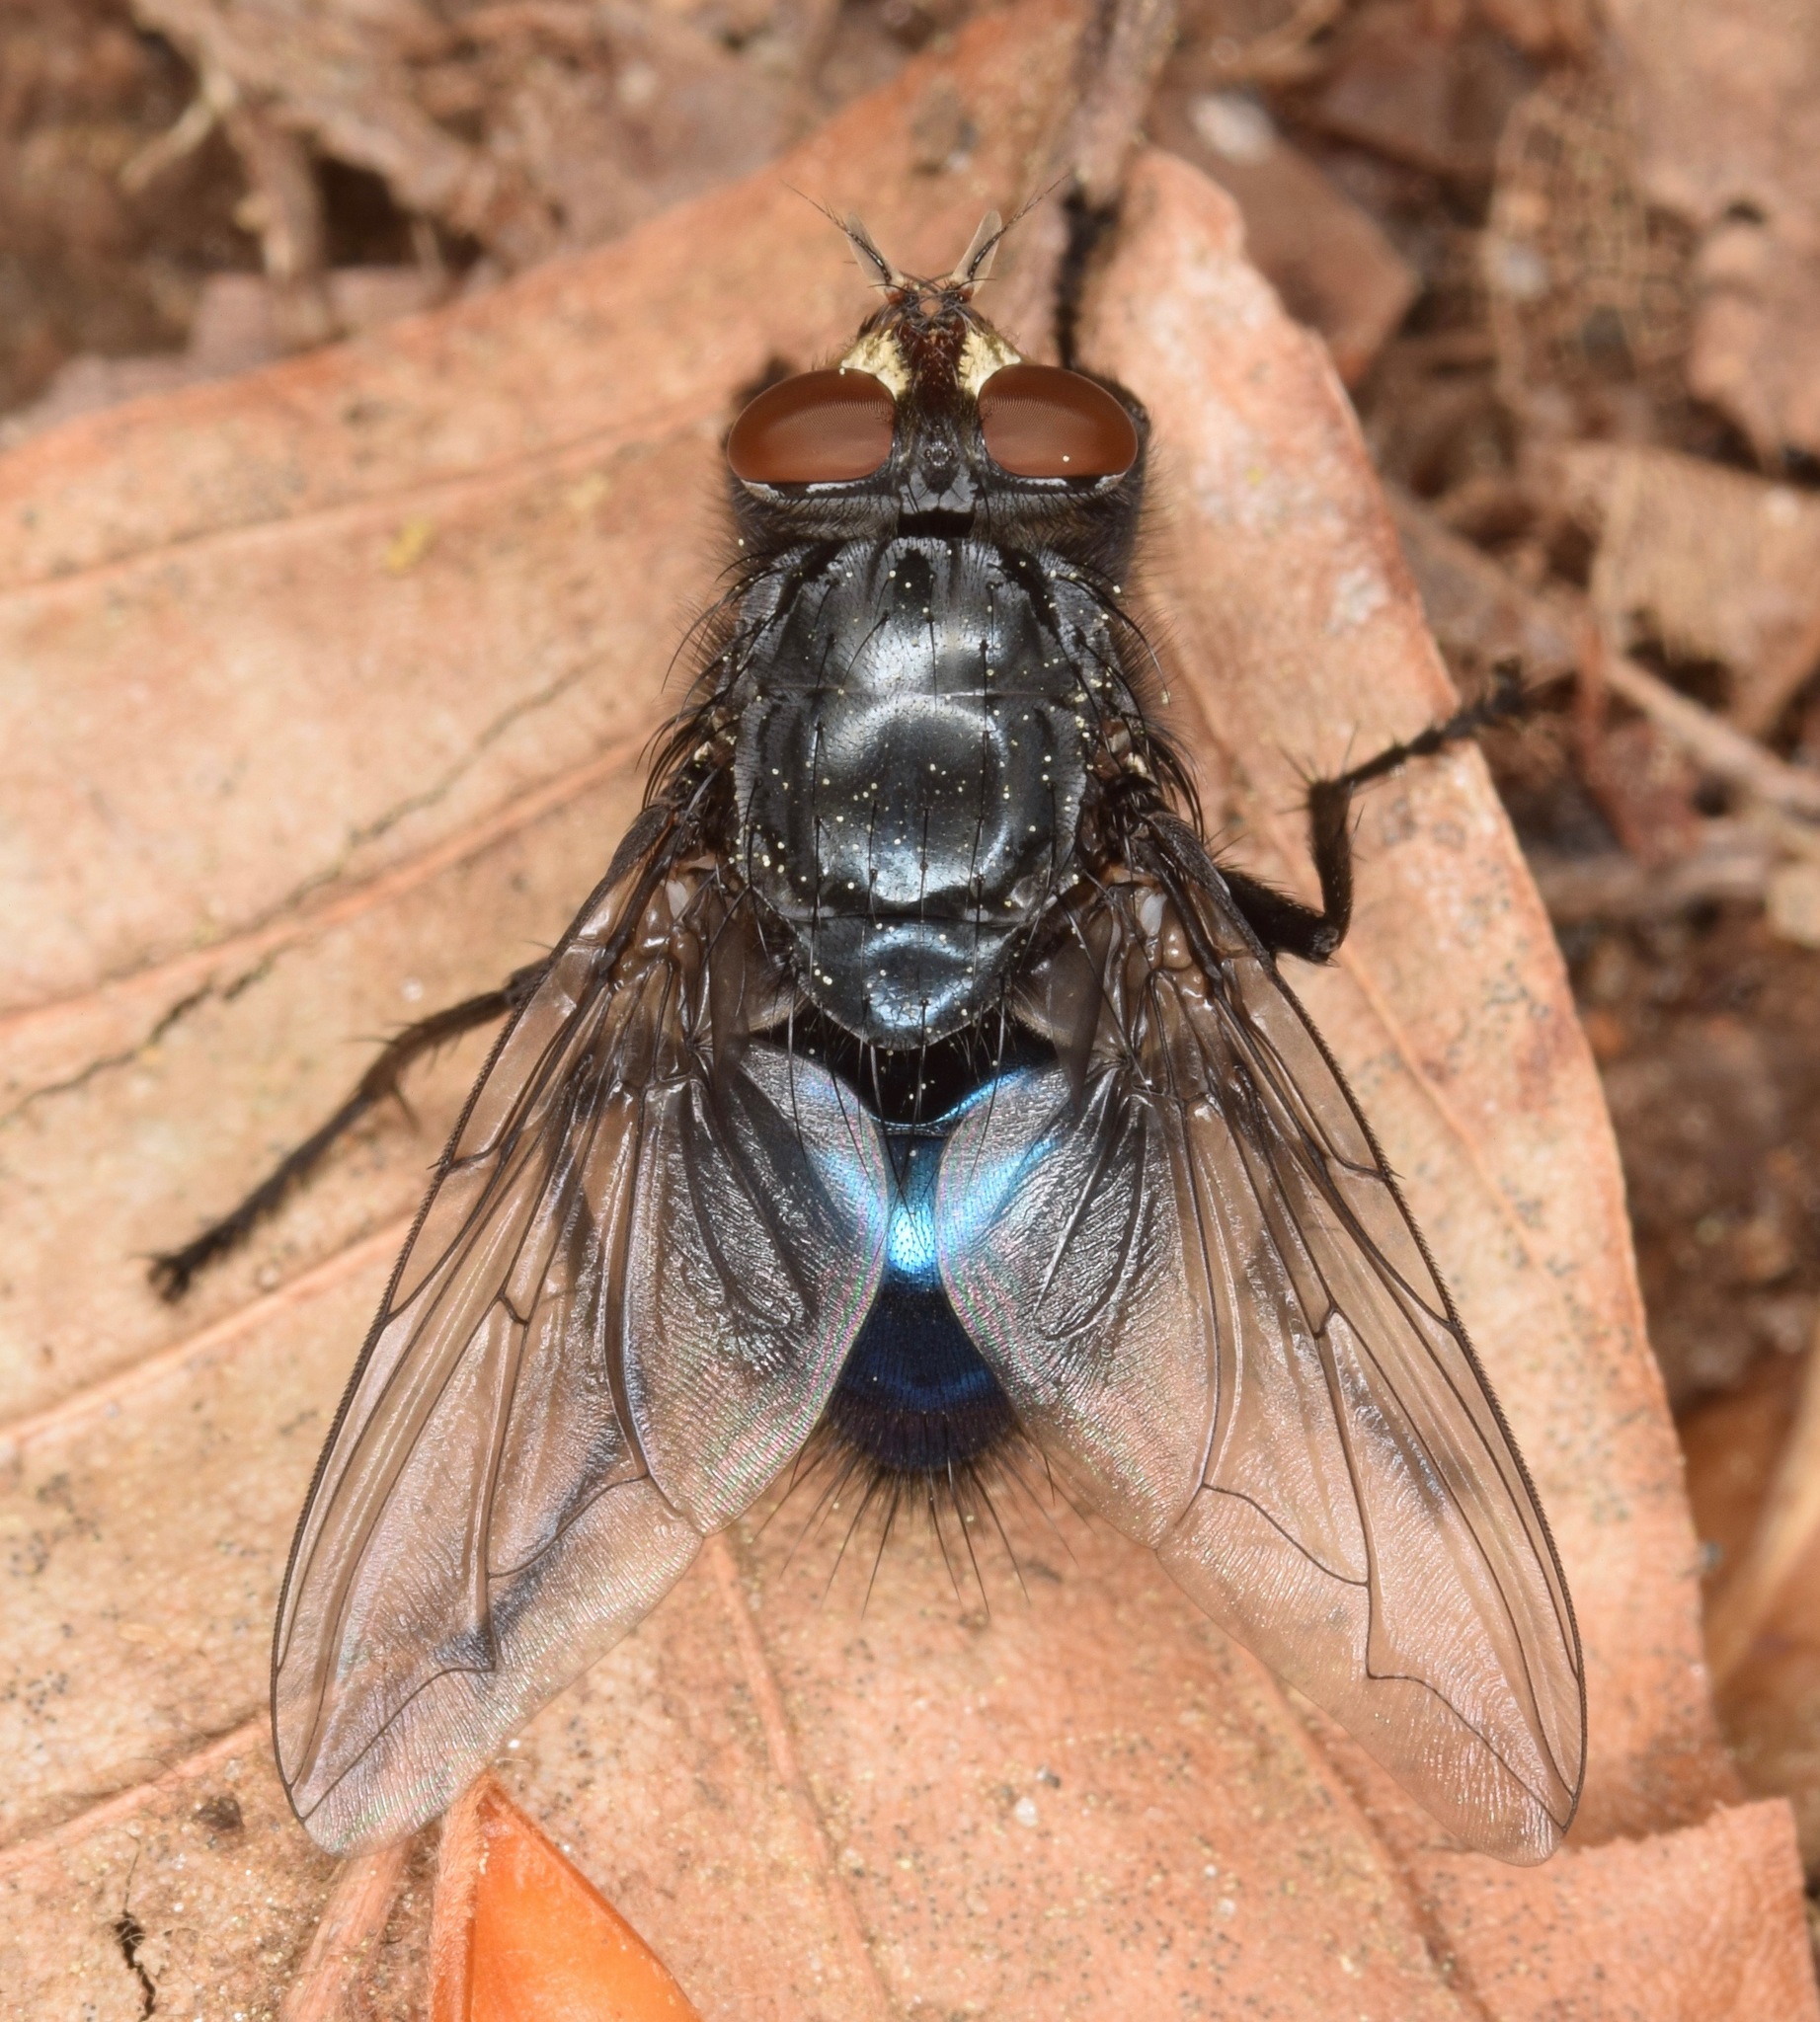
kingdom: Animalia
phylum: Arthropoda
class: Insecta
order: Diptera
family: Calliphoridae
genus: Cynomya
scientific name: Cynomya cadaverina
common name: Shiny blue bottle fly
